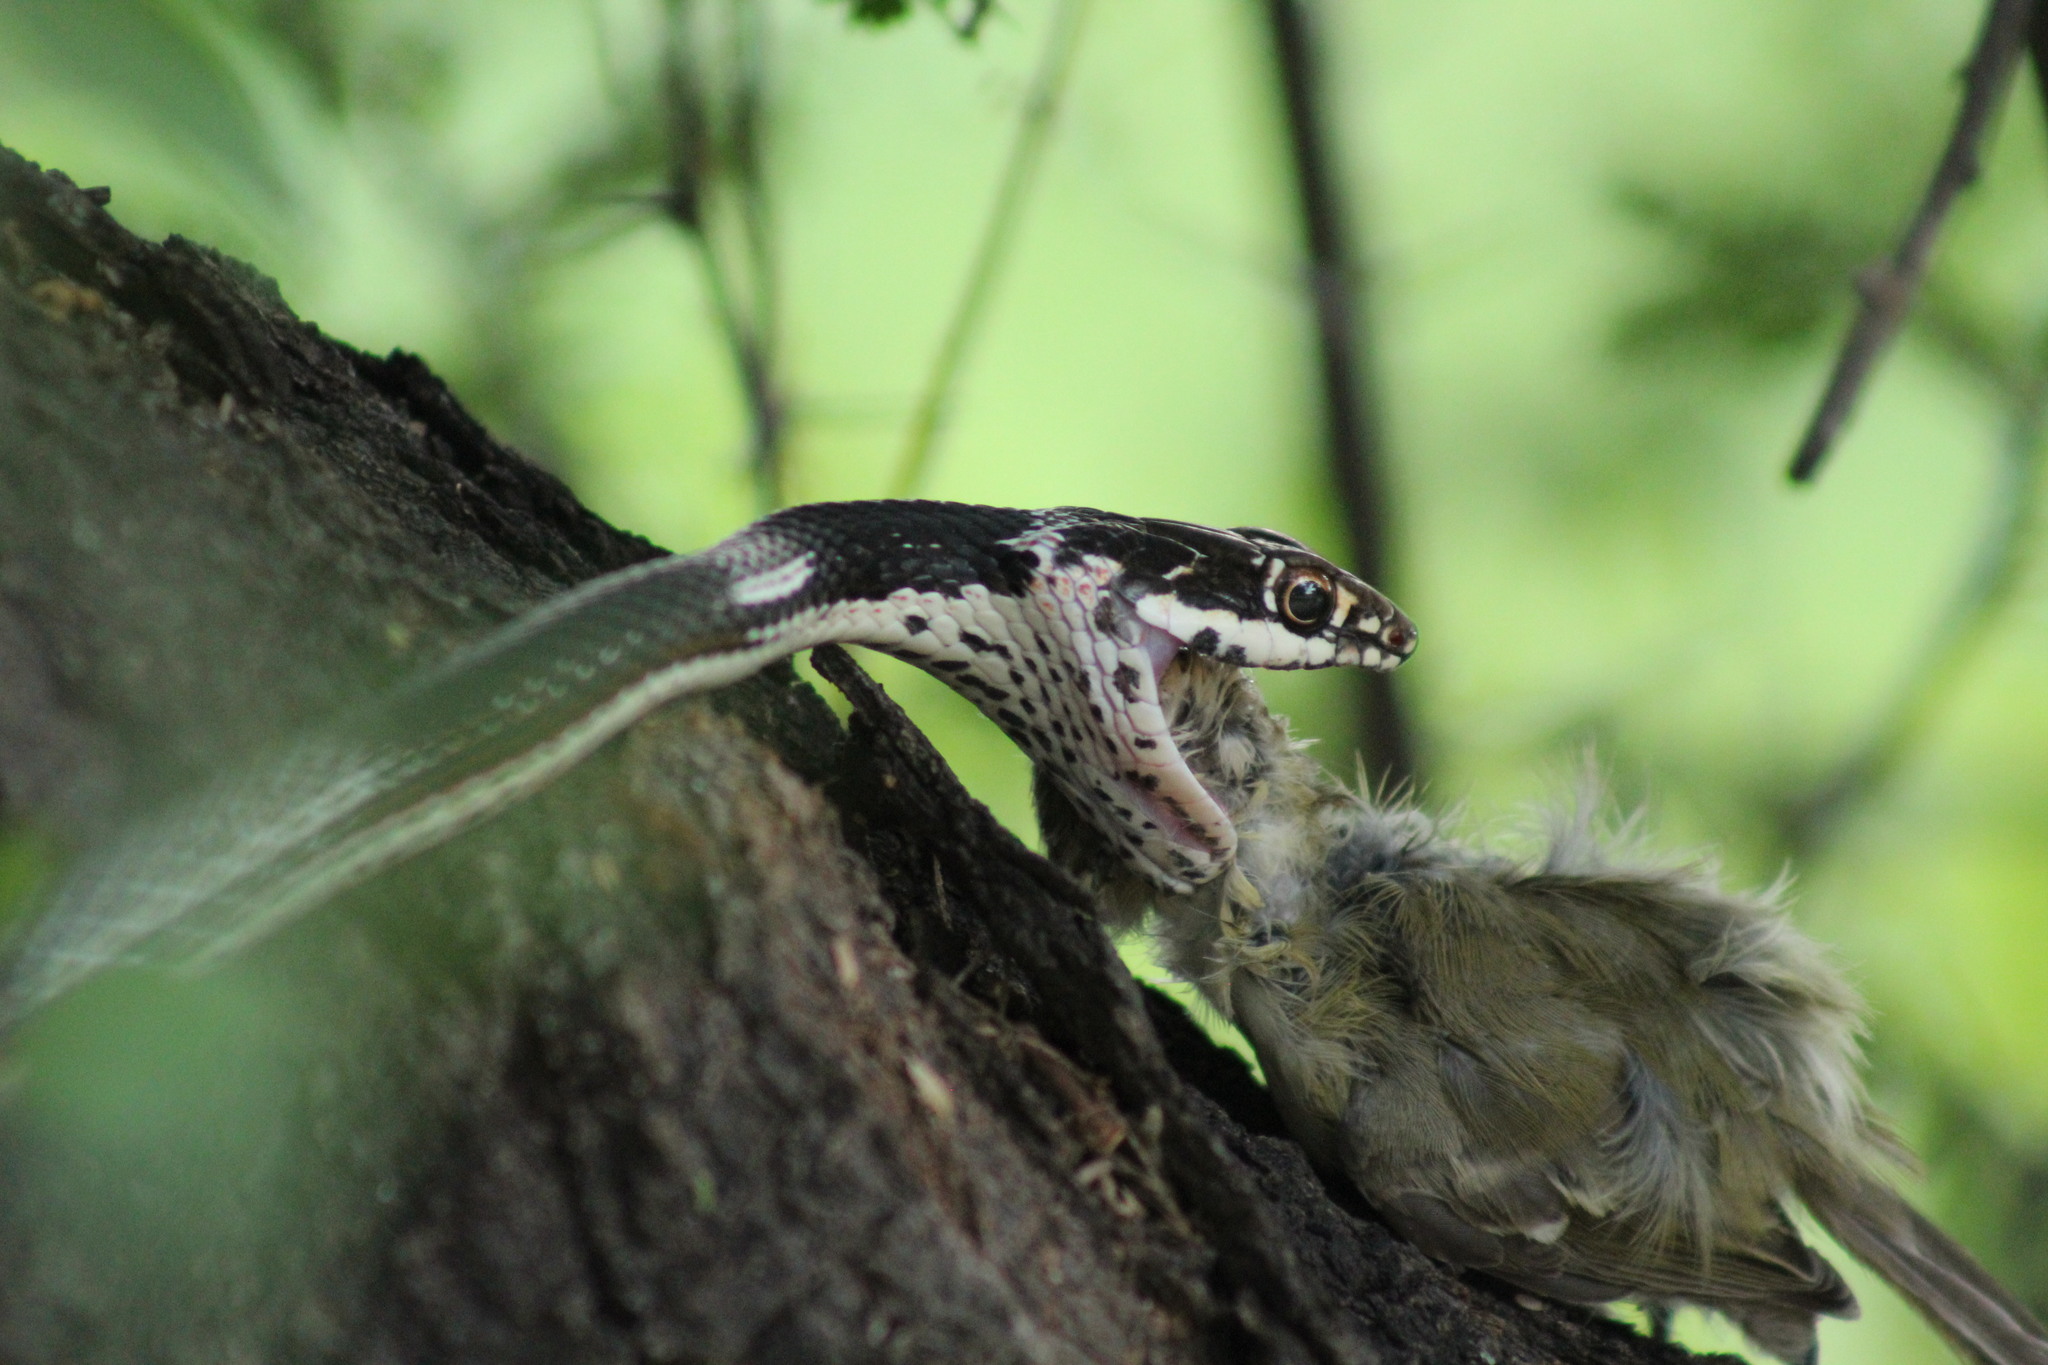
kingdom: Animalia
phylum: Chordata
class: Squamata
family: Colubridae
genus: Masticophis
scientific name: Masticophis taeniatus
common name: Striped whipsnake
